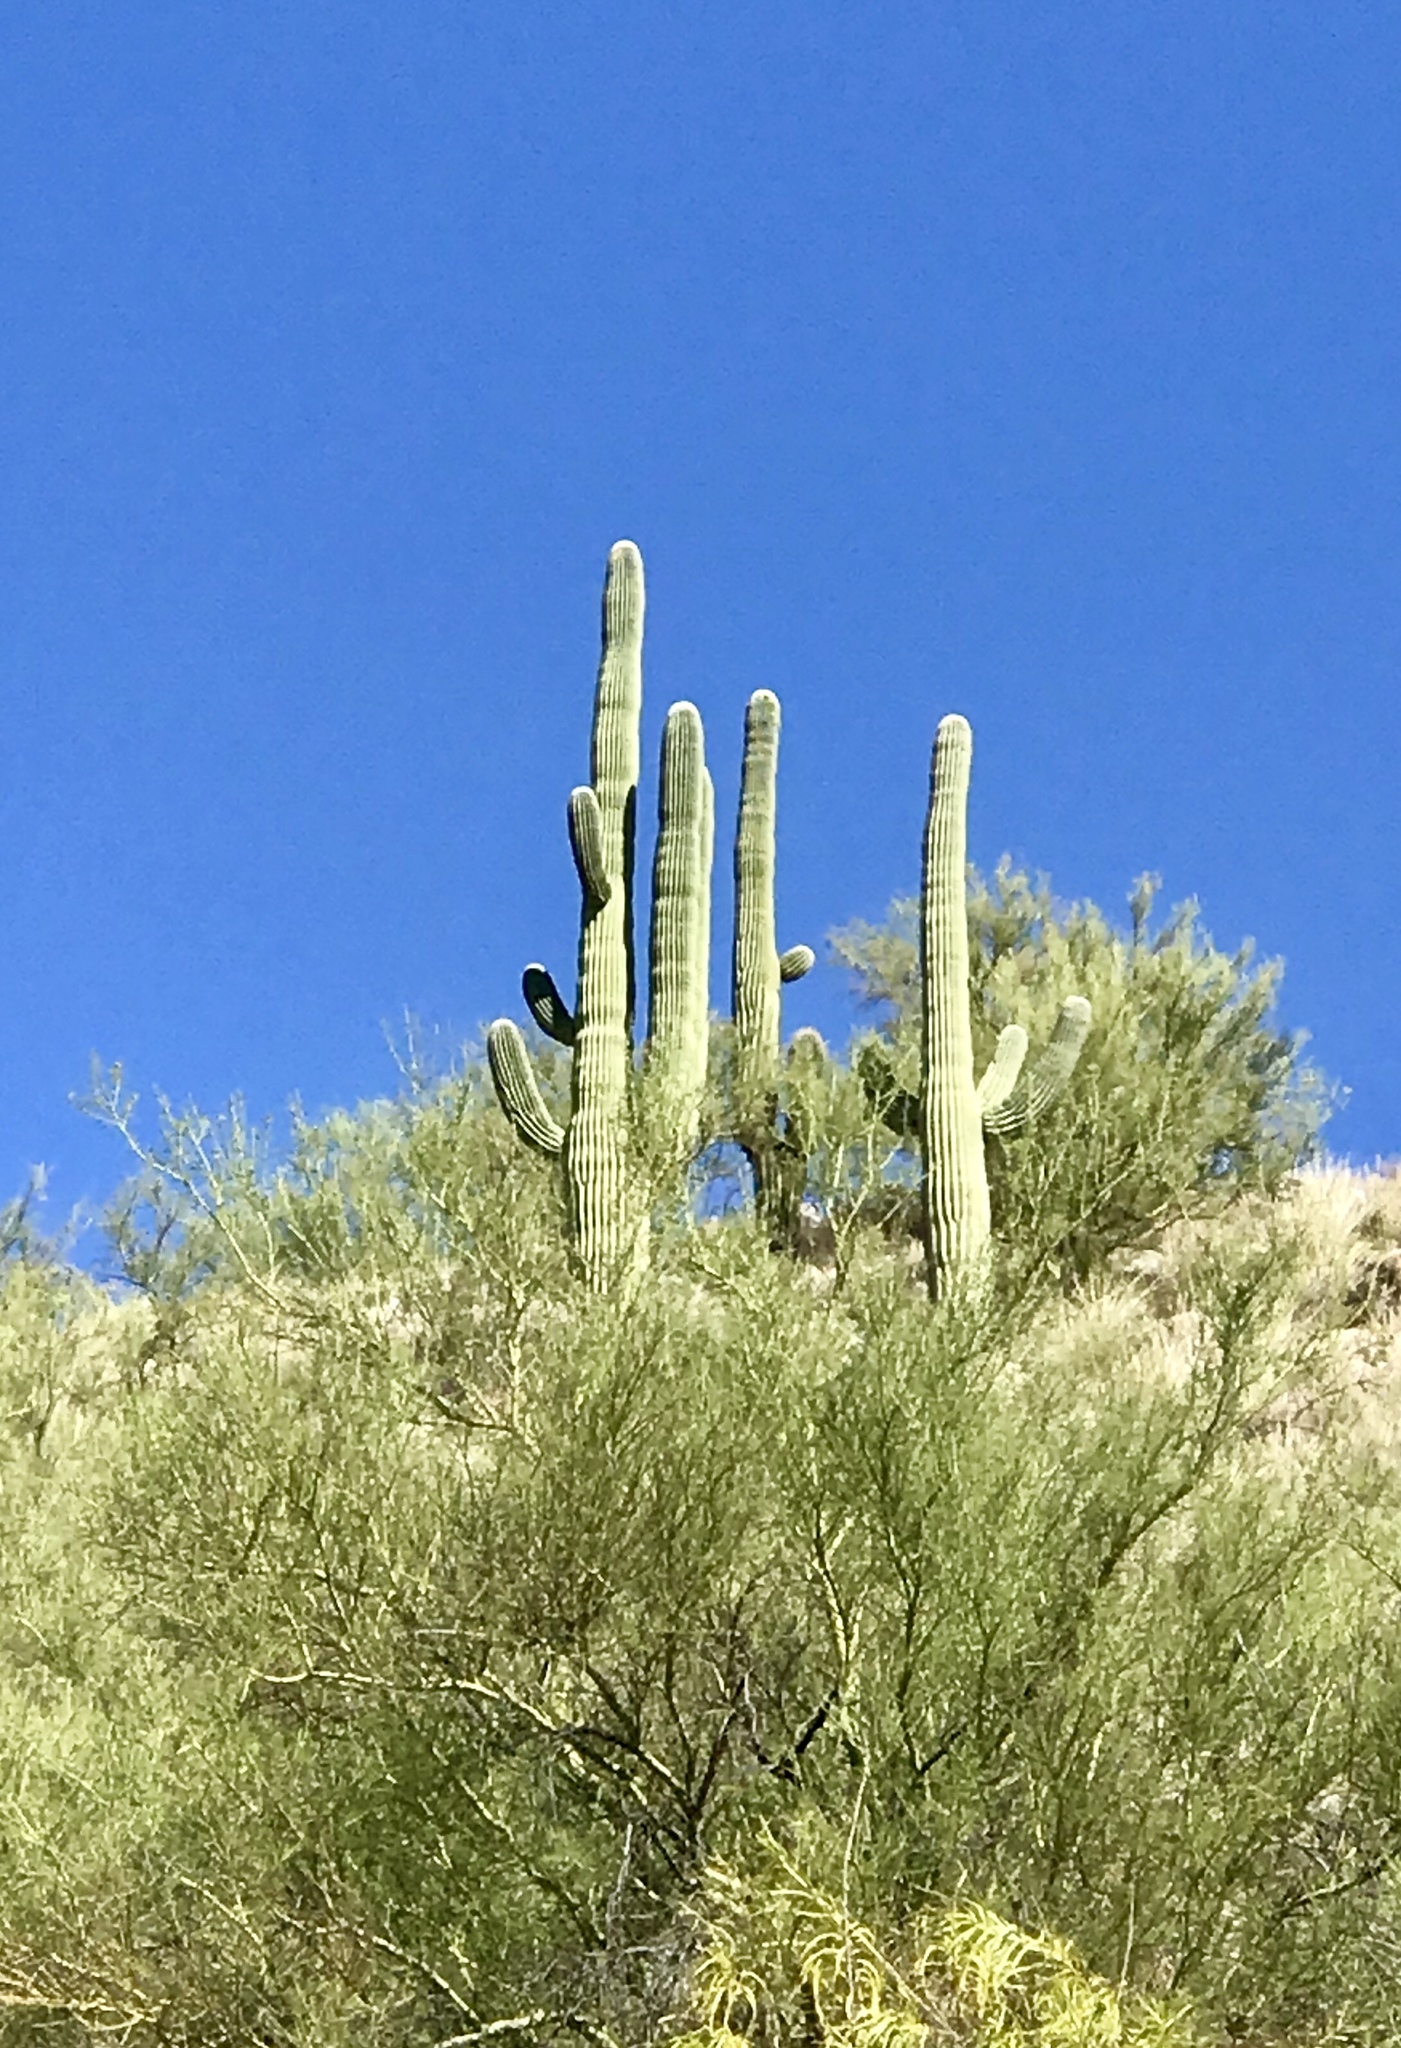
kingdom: Plantae
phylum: Tracheophyta
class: Magnoliopsida
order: Caryophyllales
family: Cactaceae
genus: Carnegiea
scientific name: Carnegiea gigantea
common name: Saguaro
